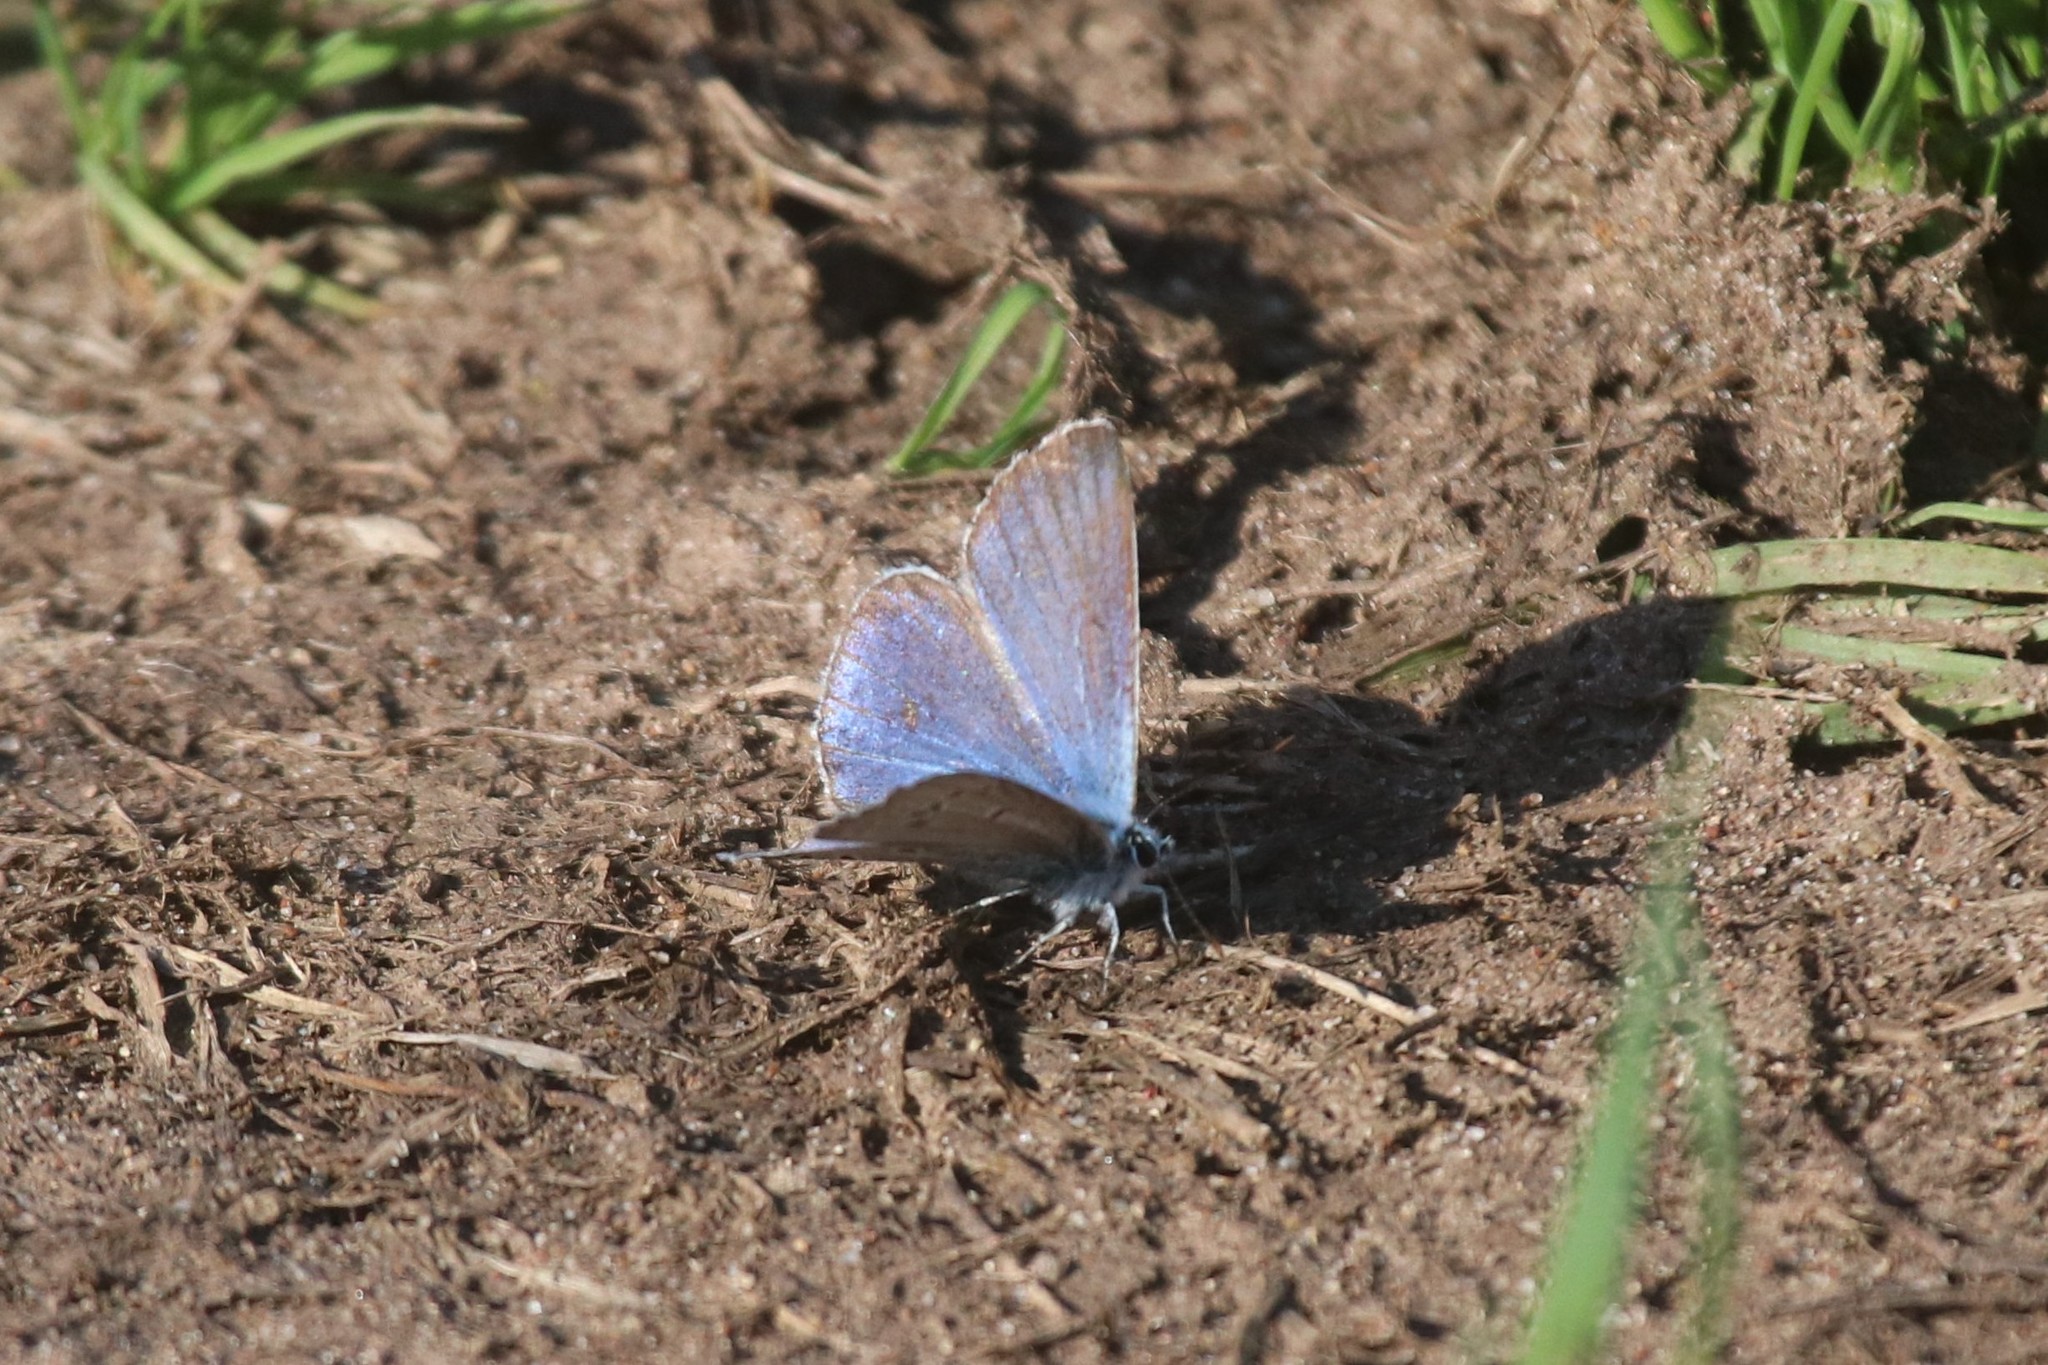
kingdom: Animalia
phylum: Arthropoda
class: Insecta
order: Lepidoptera
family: Lycaenidae
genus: Plebejus
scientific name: Plebejus amanda
